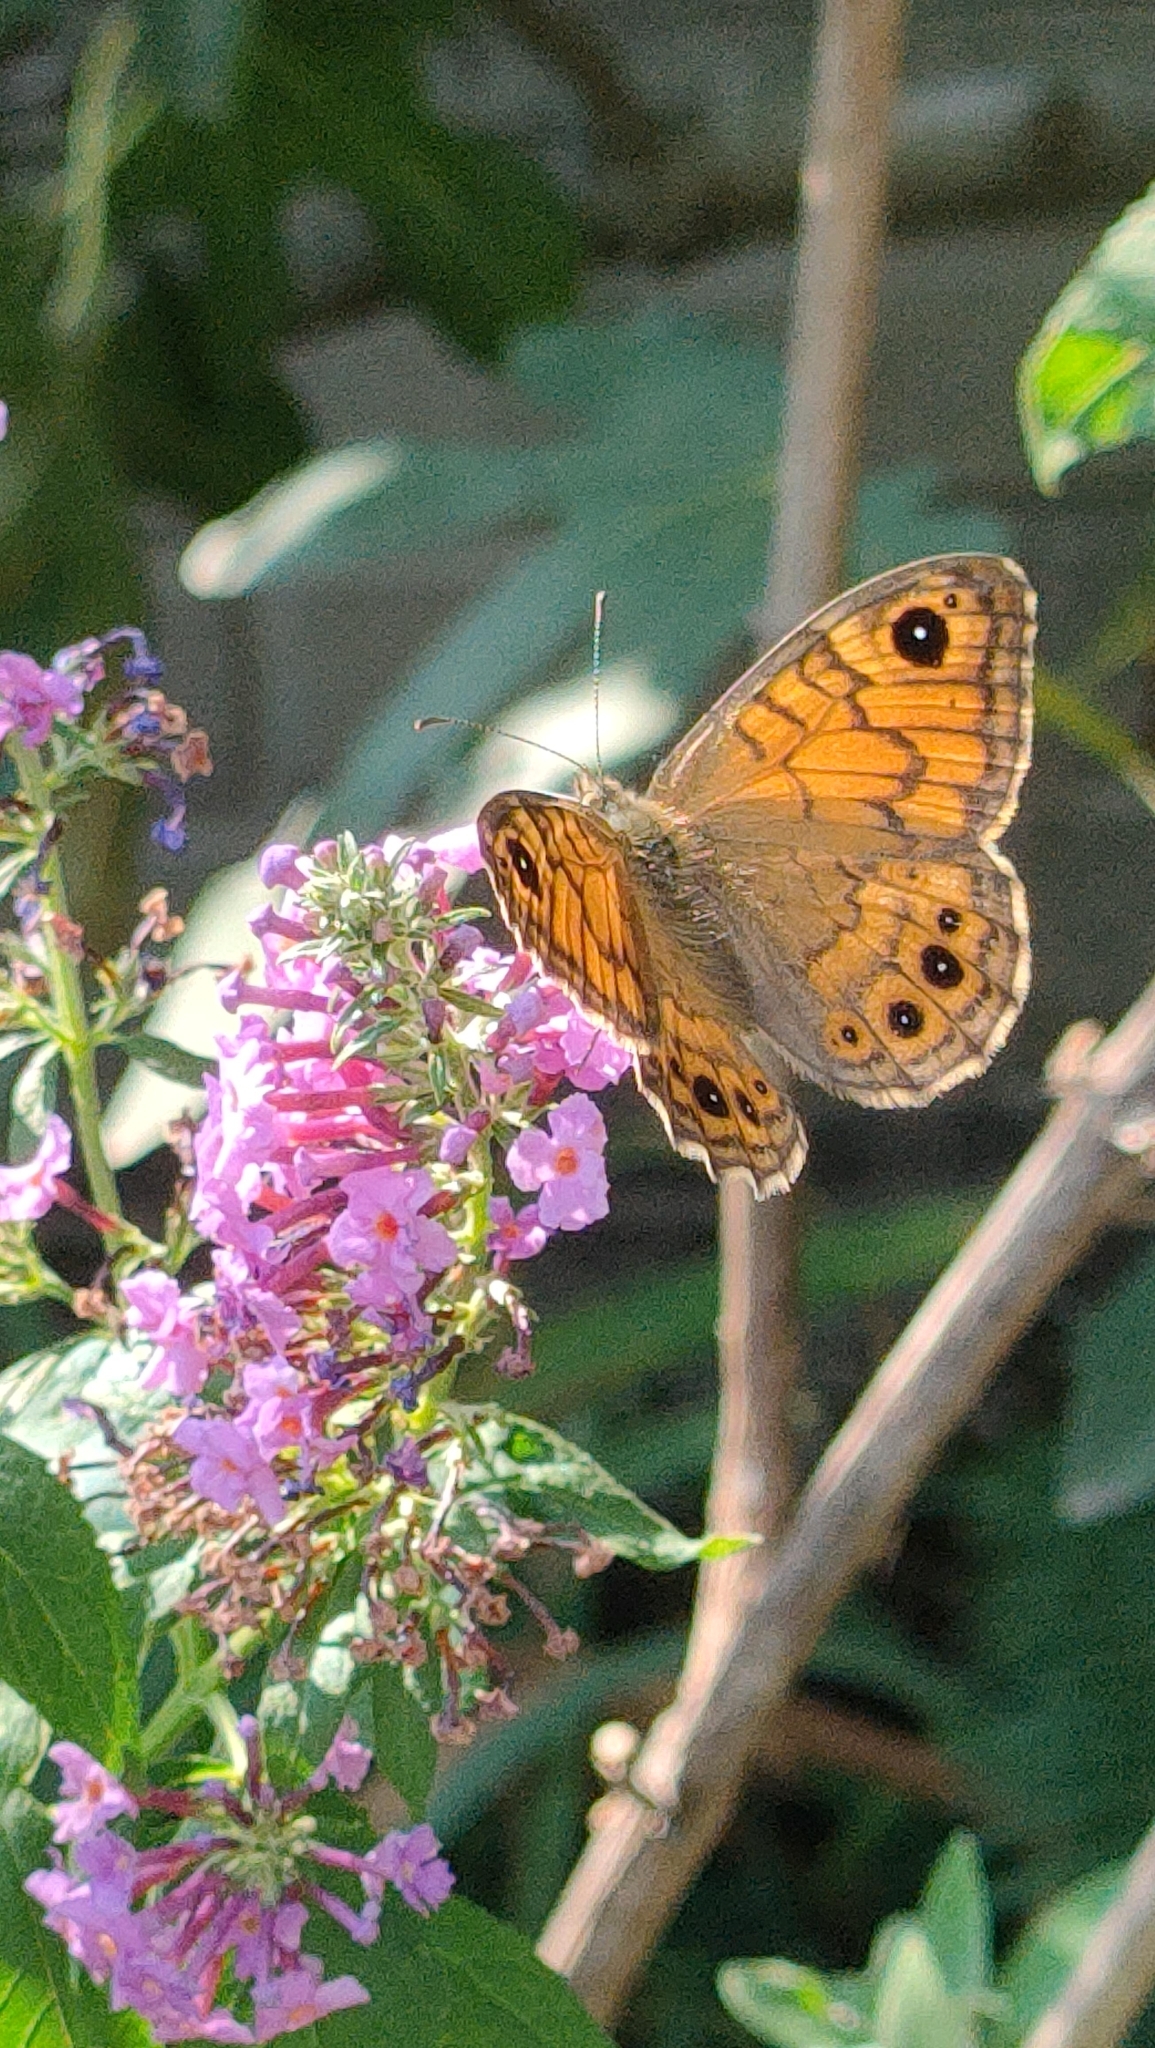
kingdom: Animalia
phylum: Arthropoda
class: Insecta
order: Lepidoptera
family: Nymphalidae
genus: Pararge
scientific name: Pararge Lasiommata megera
